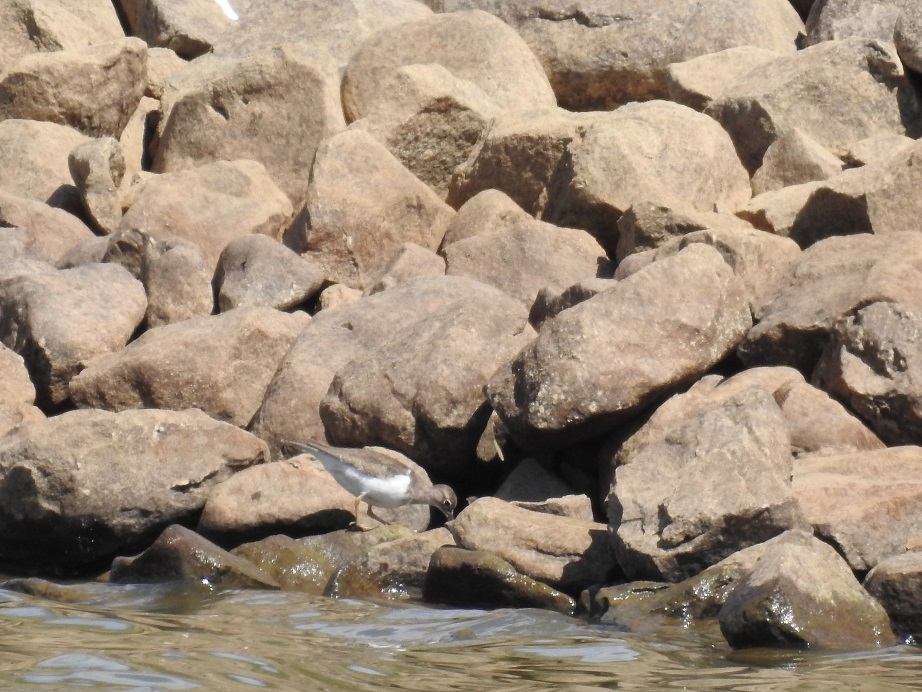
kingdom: Animalia
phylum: Chordata
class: Aves
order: Charadriiformes
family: Scolopacidae
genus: Actitis
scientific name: Actitis hypoleucos
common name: Common sandpiper
